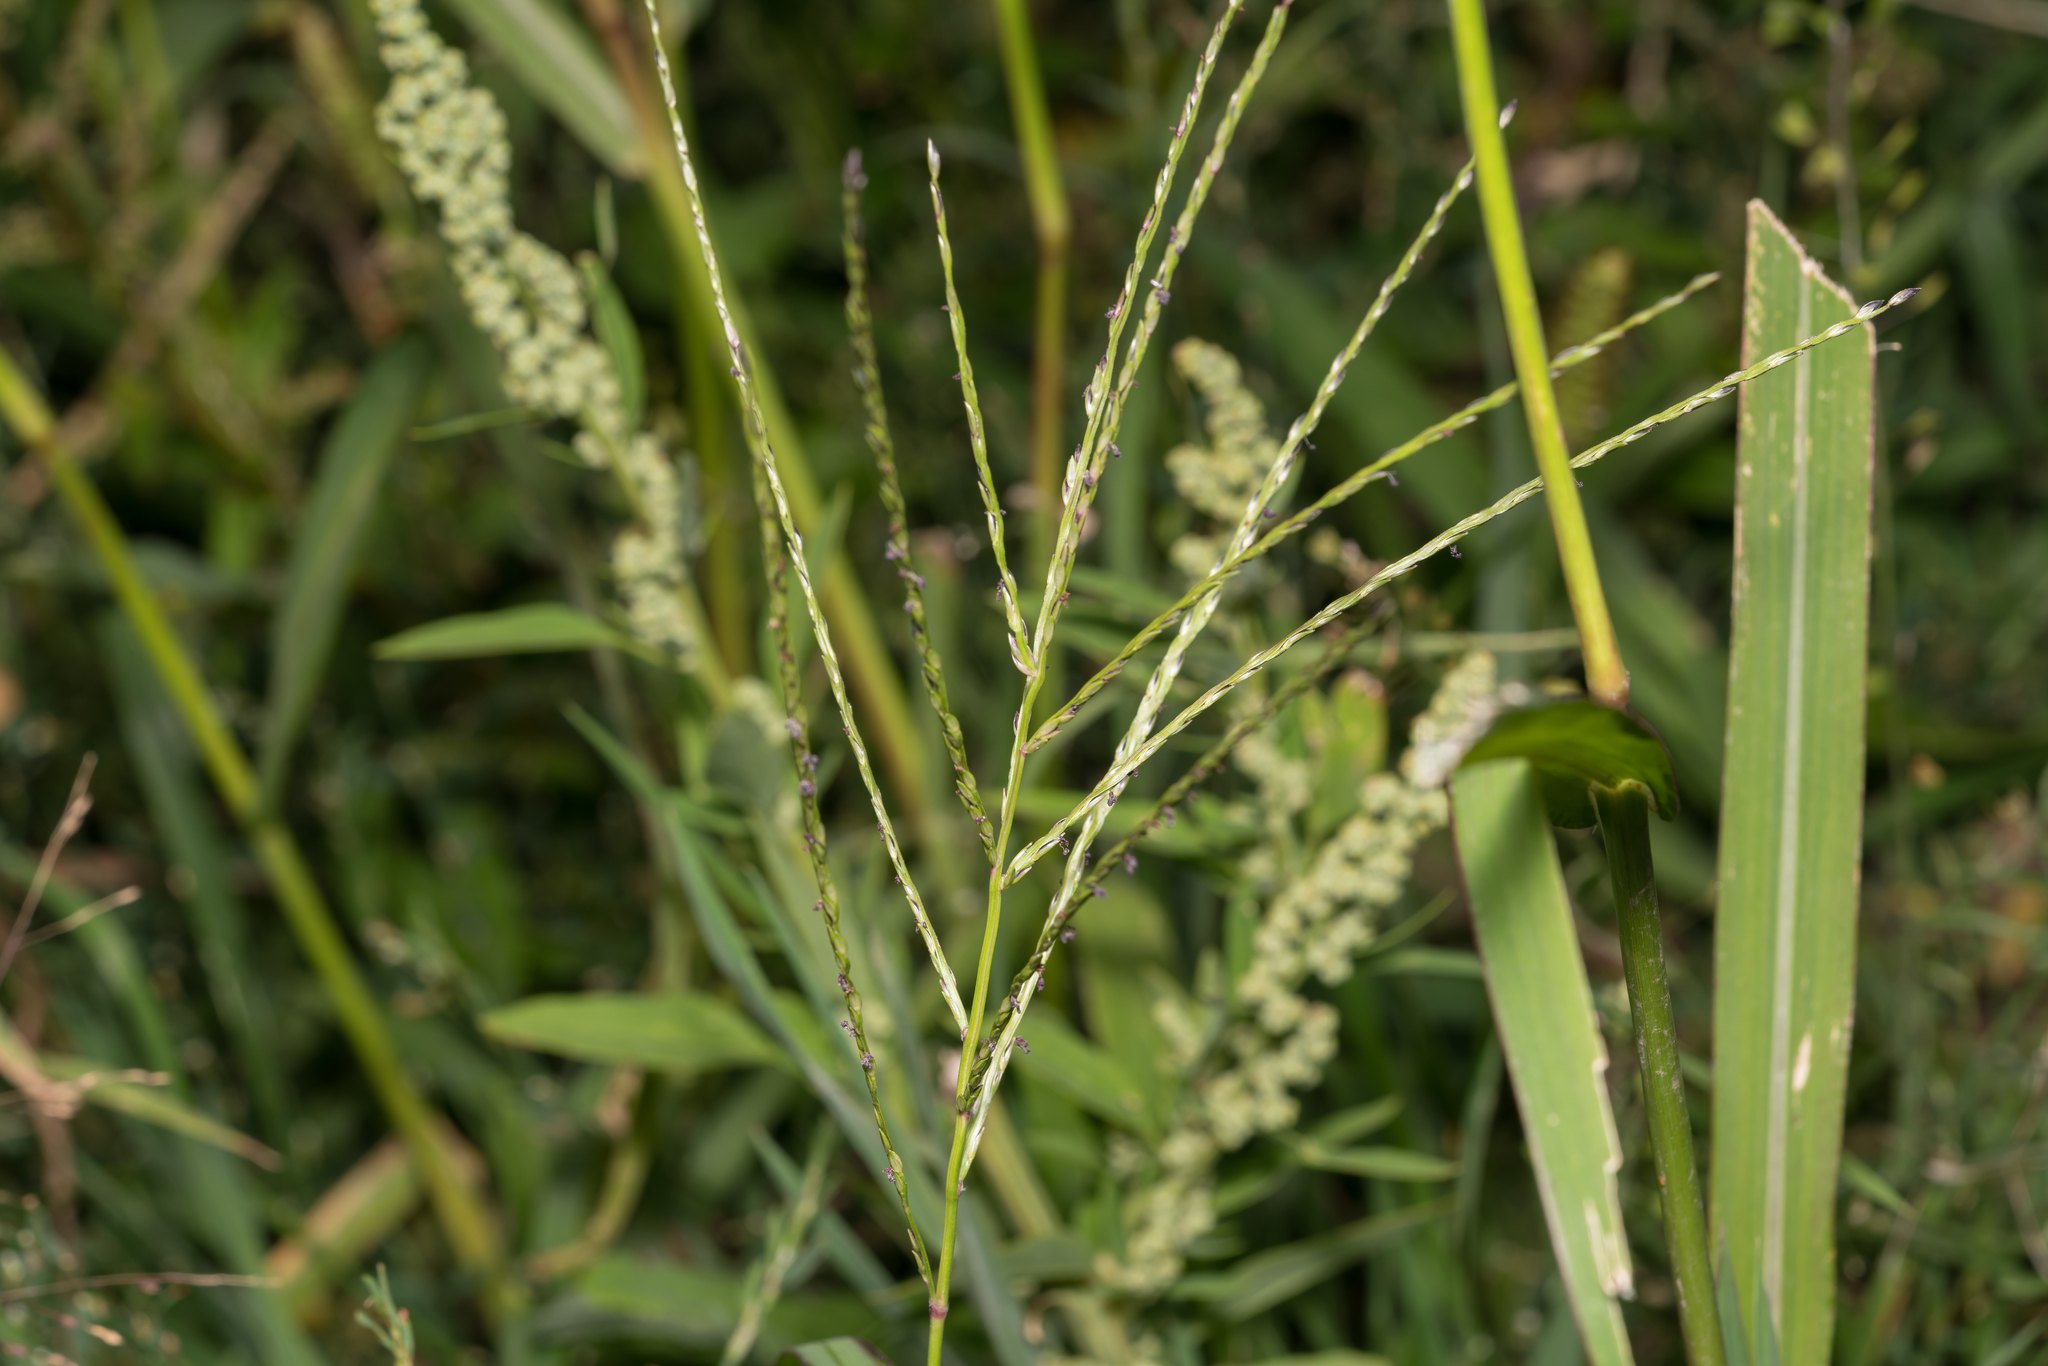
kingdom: Plantae
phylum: Tracheophyta
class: Liliopsida
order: Poales
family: Poaceae
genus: Digitaria
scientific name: Digitaria sanguinalis
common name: Hairy crabgrass
